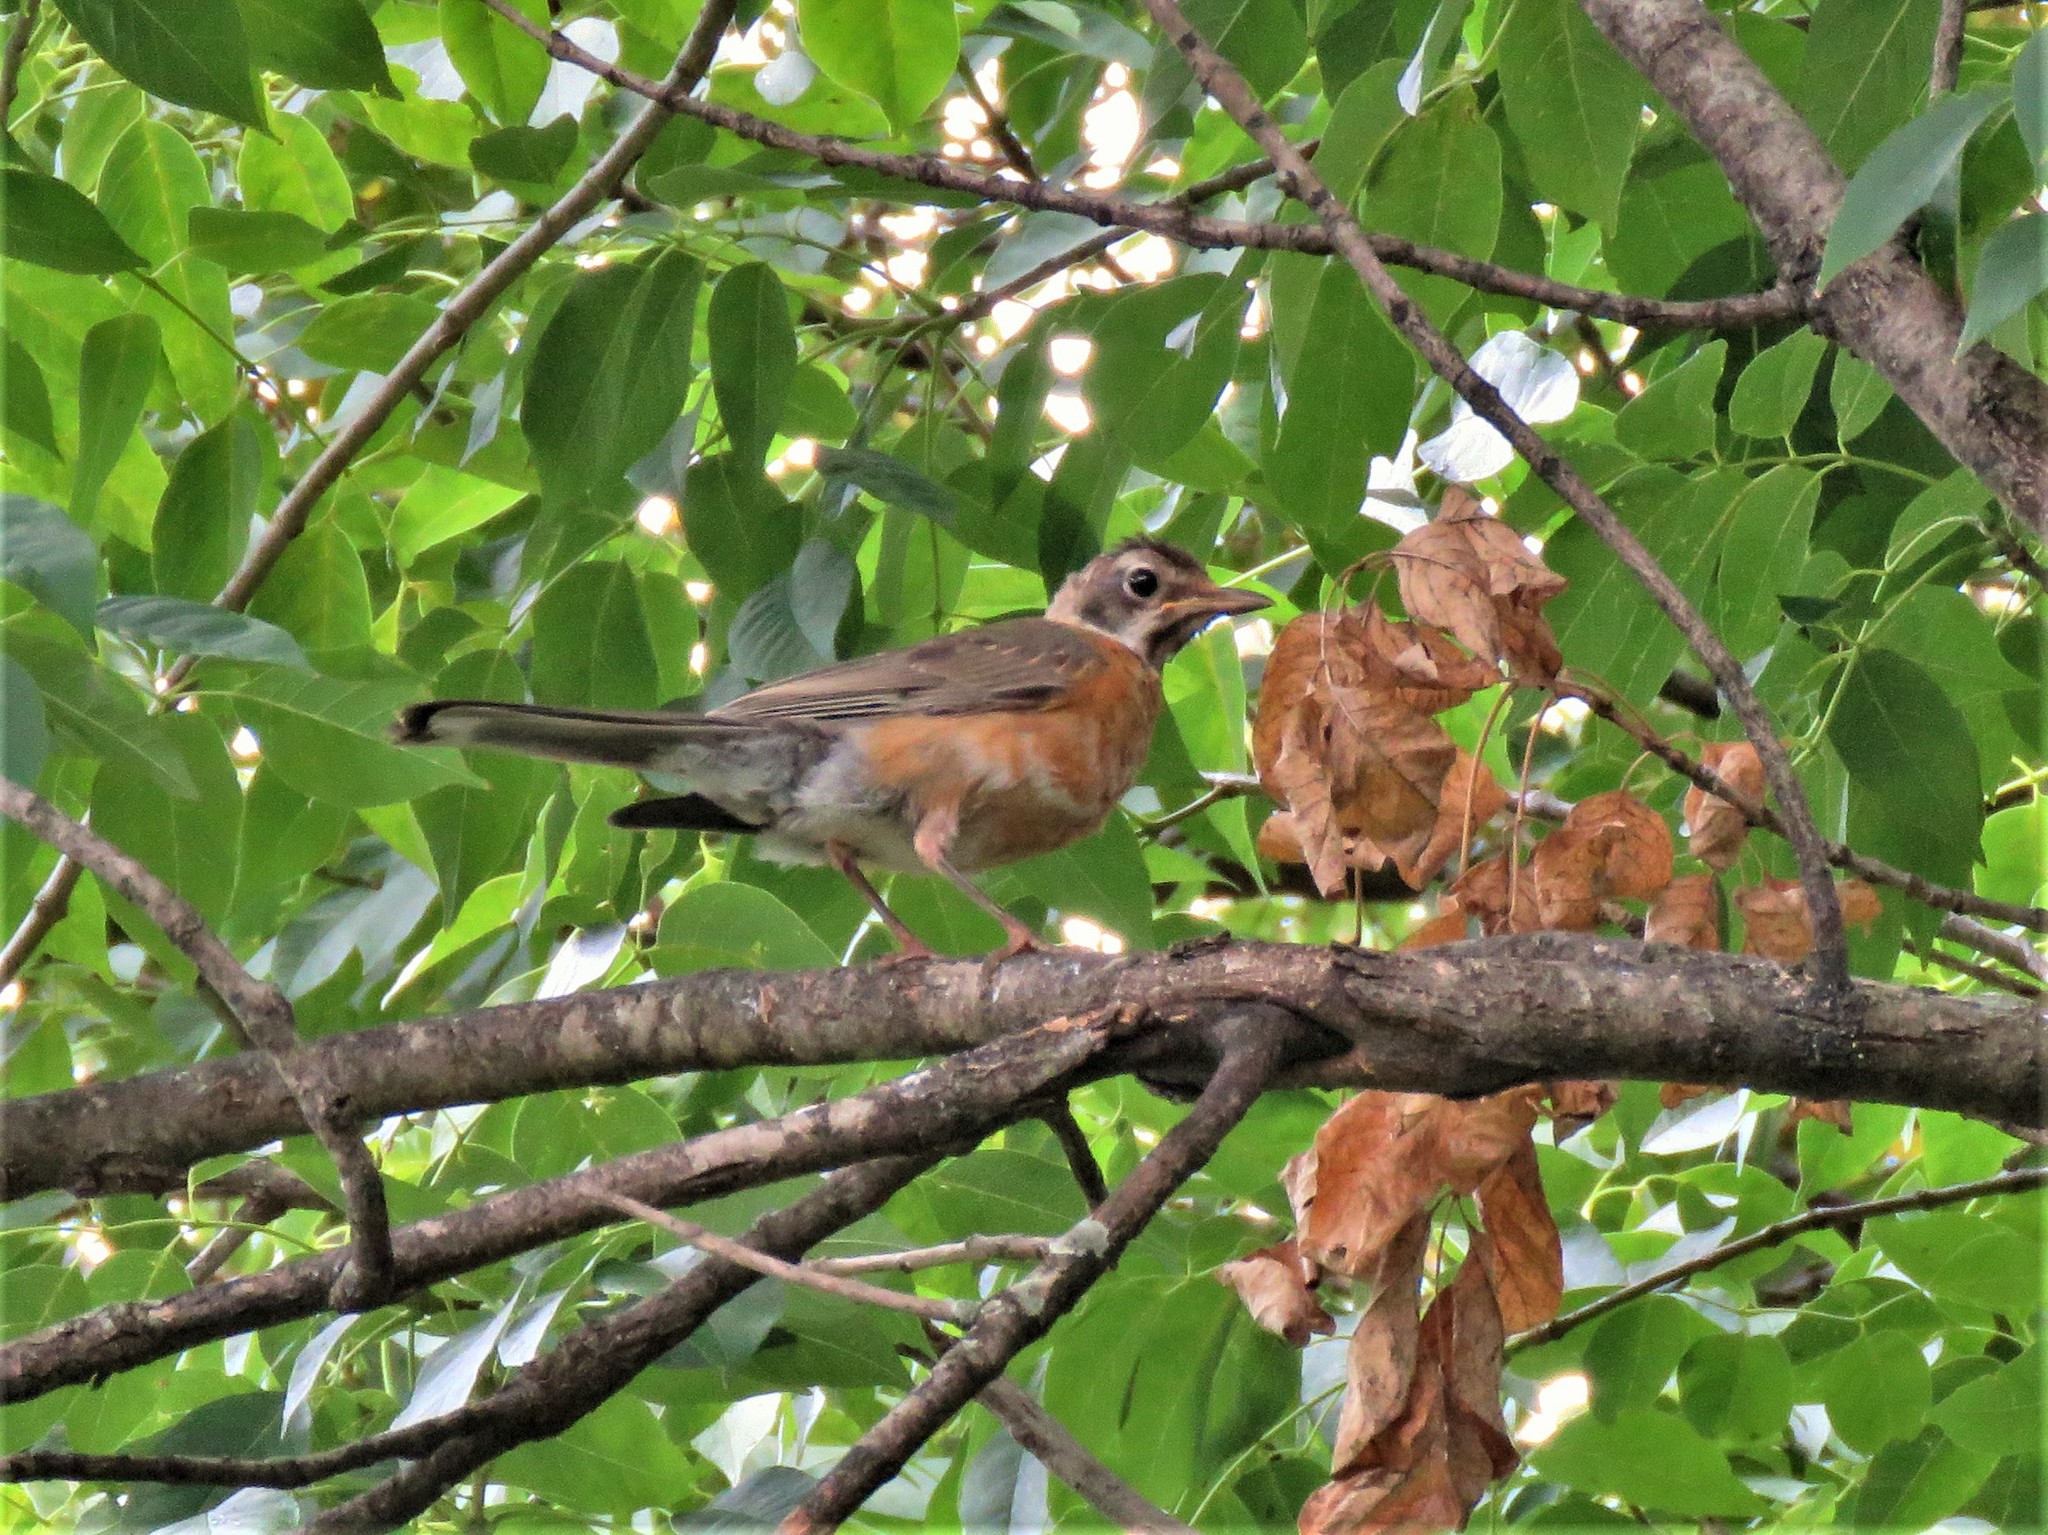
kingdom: Animalia
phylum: Chordata
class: Aves
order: Passeriformes
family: Turdidae
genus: Turdus
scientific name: Turdus migratorius
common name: American robin
